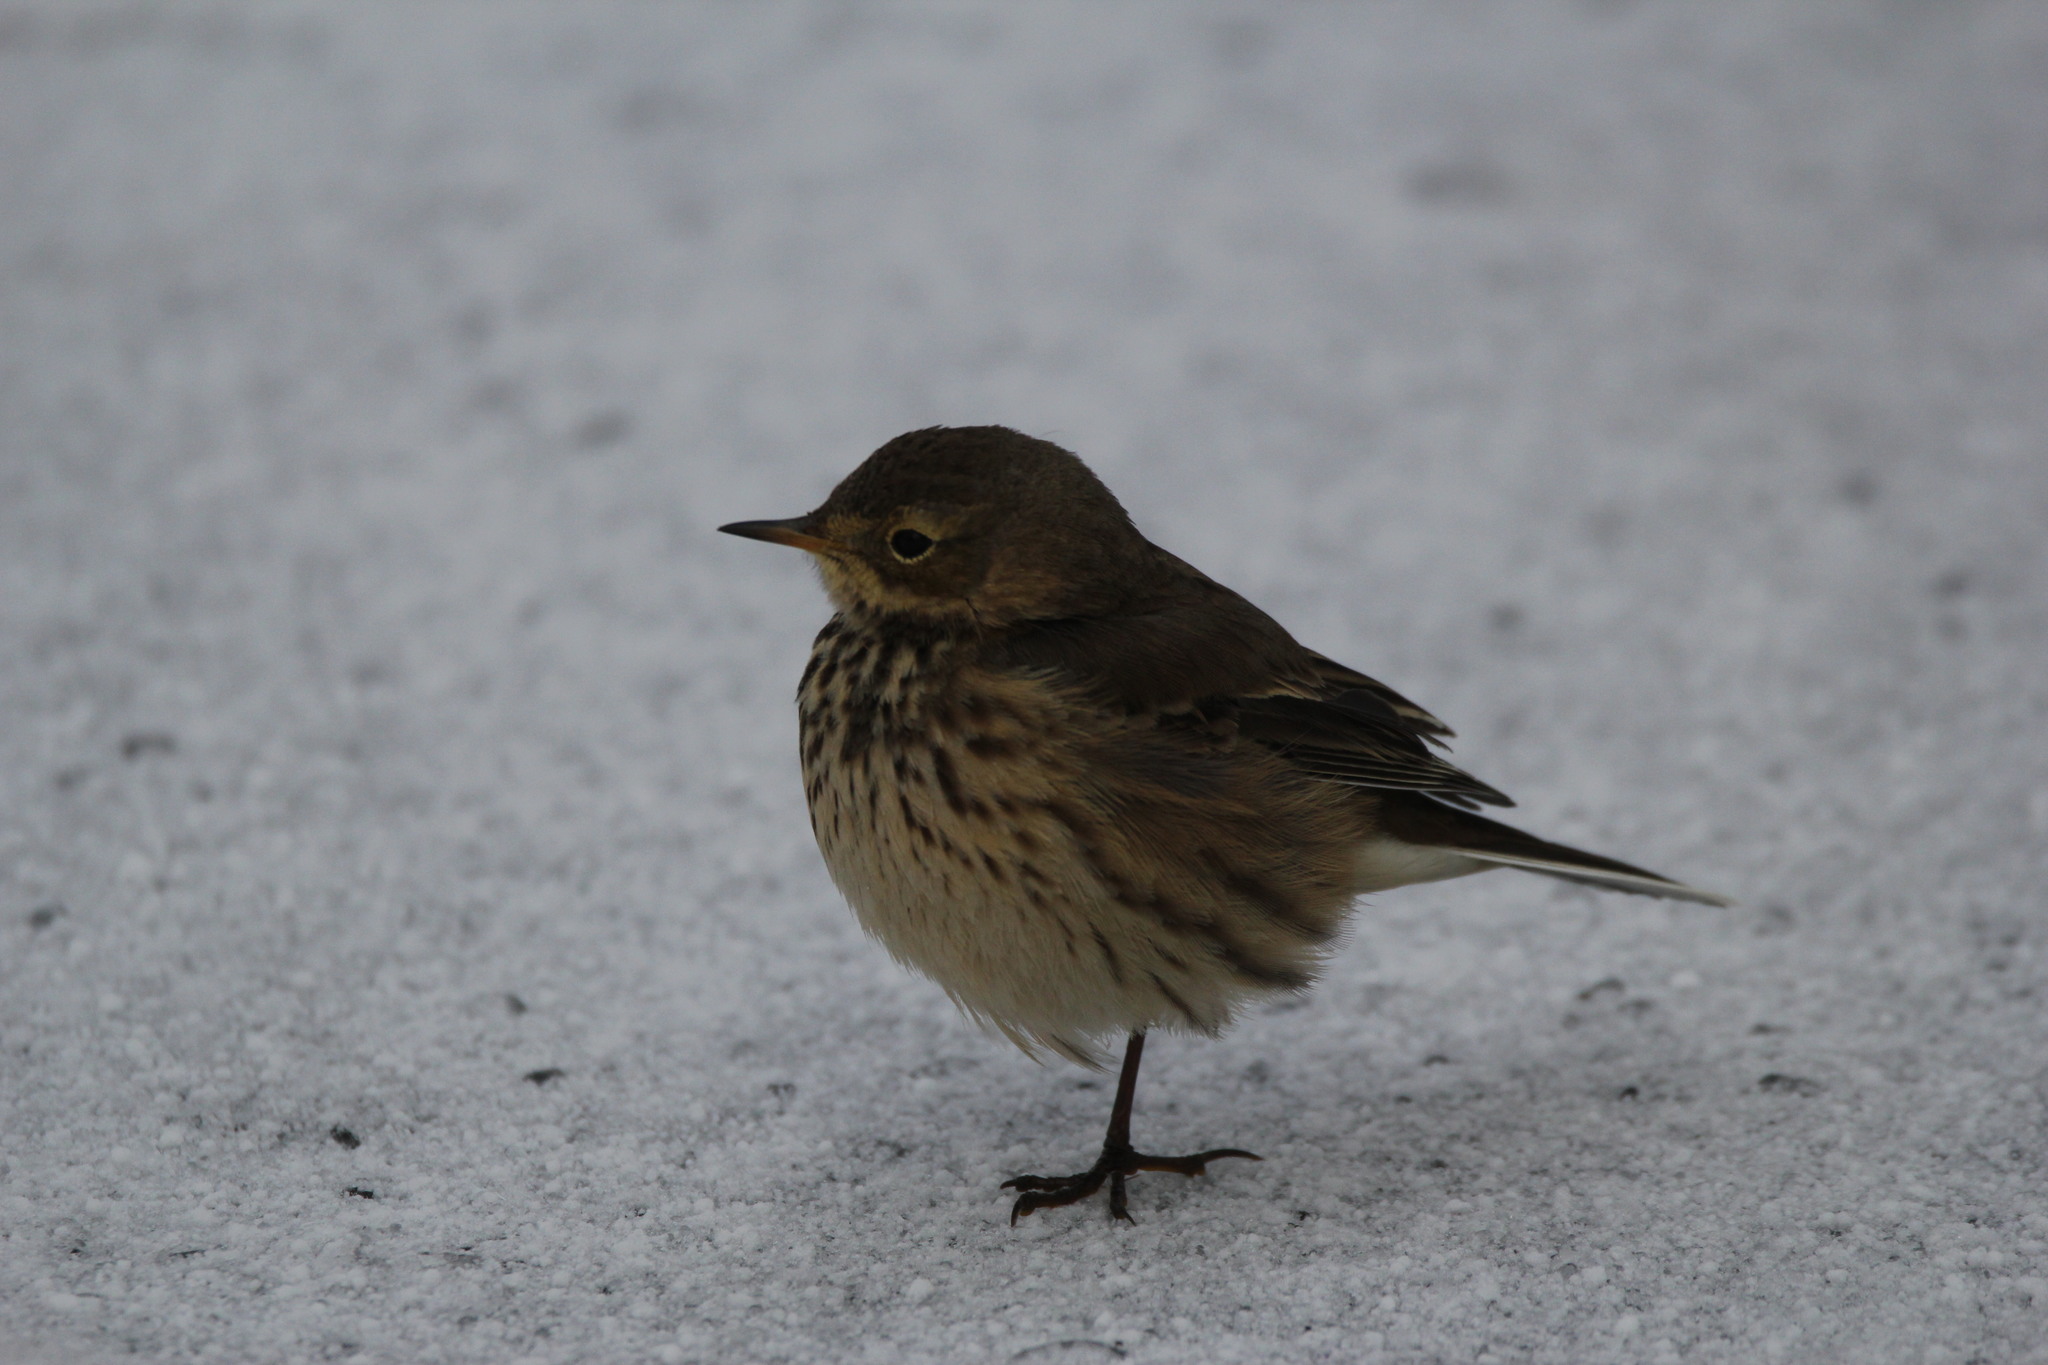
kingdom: Animalia
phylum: Chordata
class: Aves
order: Passeriformes
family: Motacillidae
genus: Anthus
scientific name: Anthus rubescens
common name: Buff-bellied pipit
